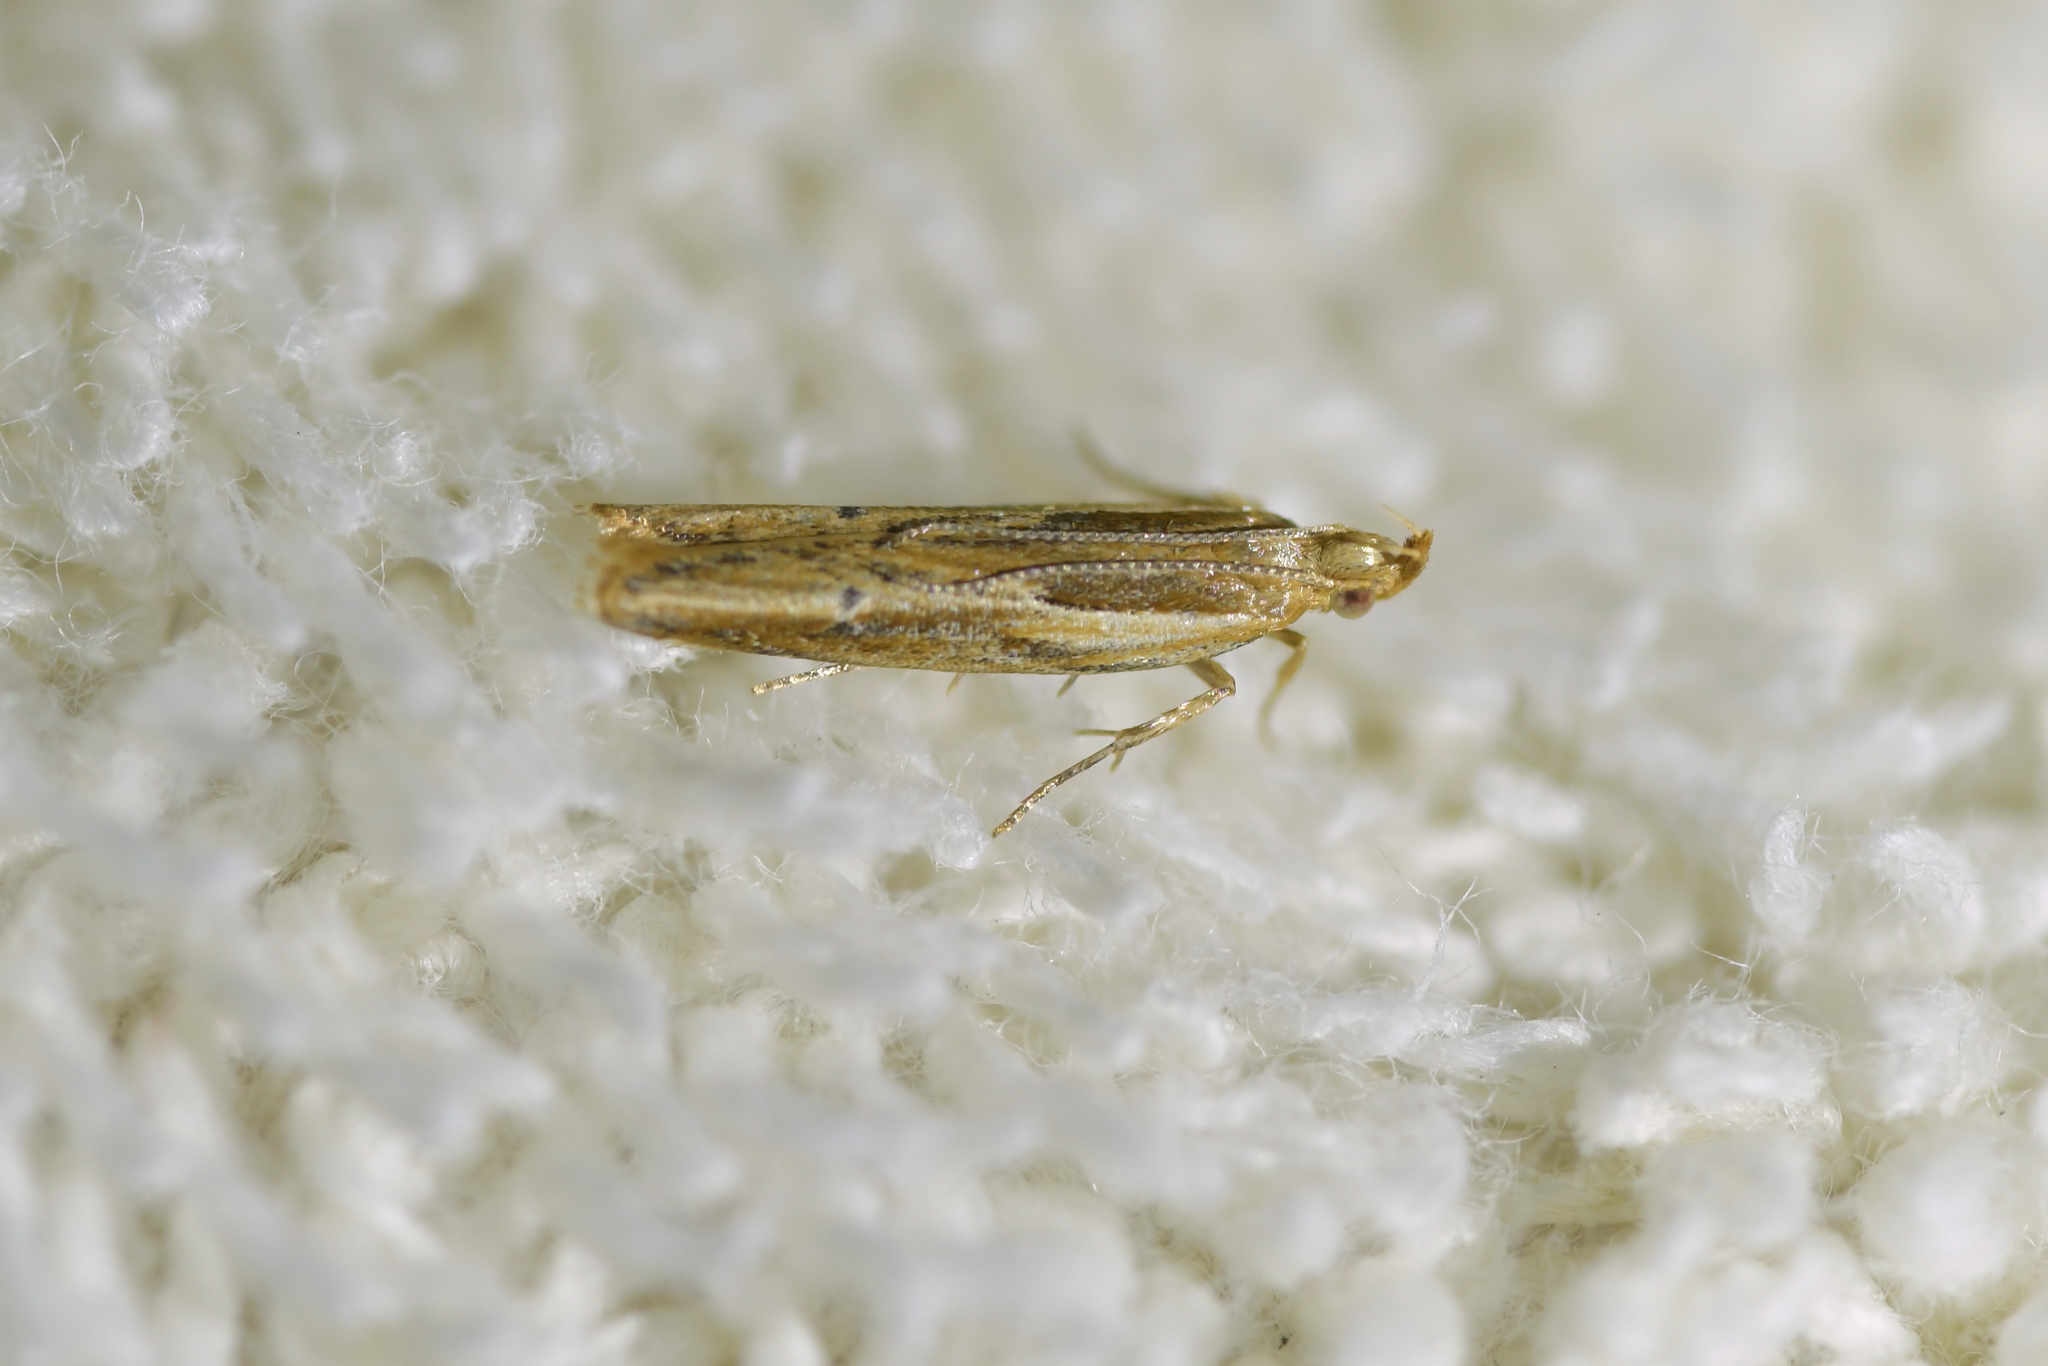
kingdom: Animalia
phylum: Arthropoda
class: Insecta
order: Lepidoptera
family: Depressariidae
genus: Eutorna
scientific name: Eutorna symmorpha
